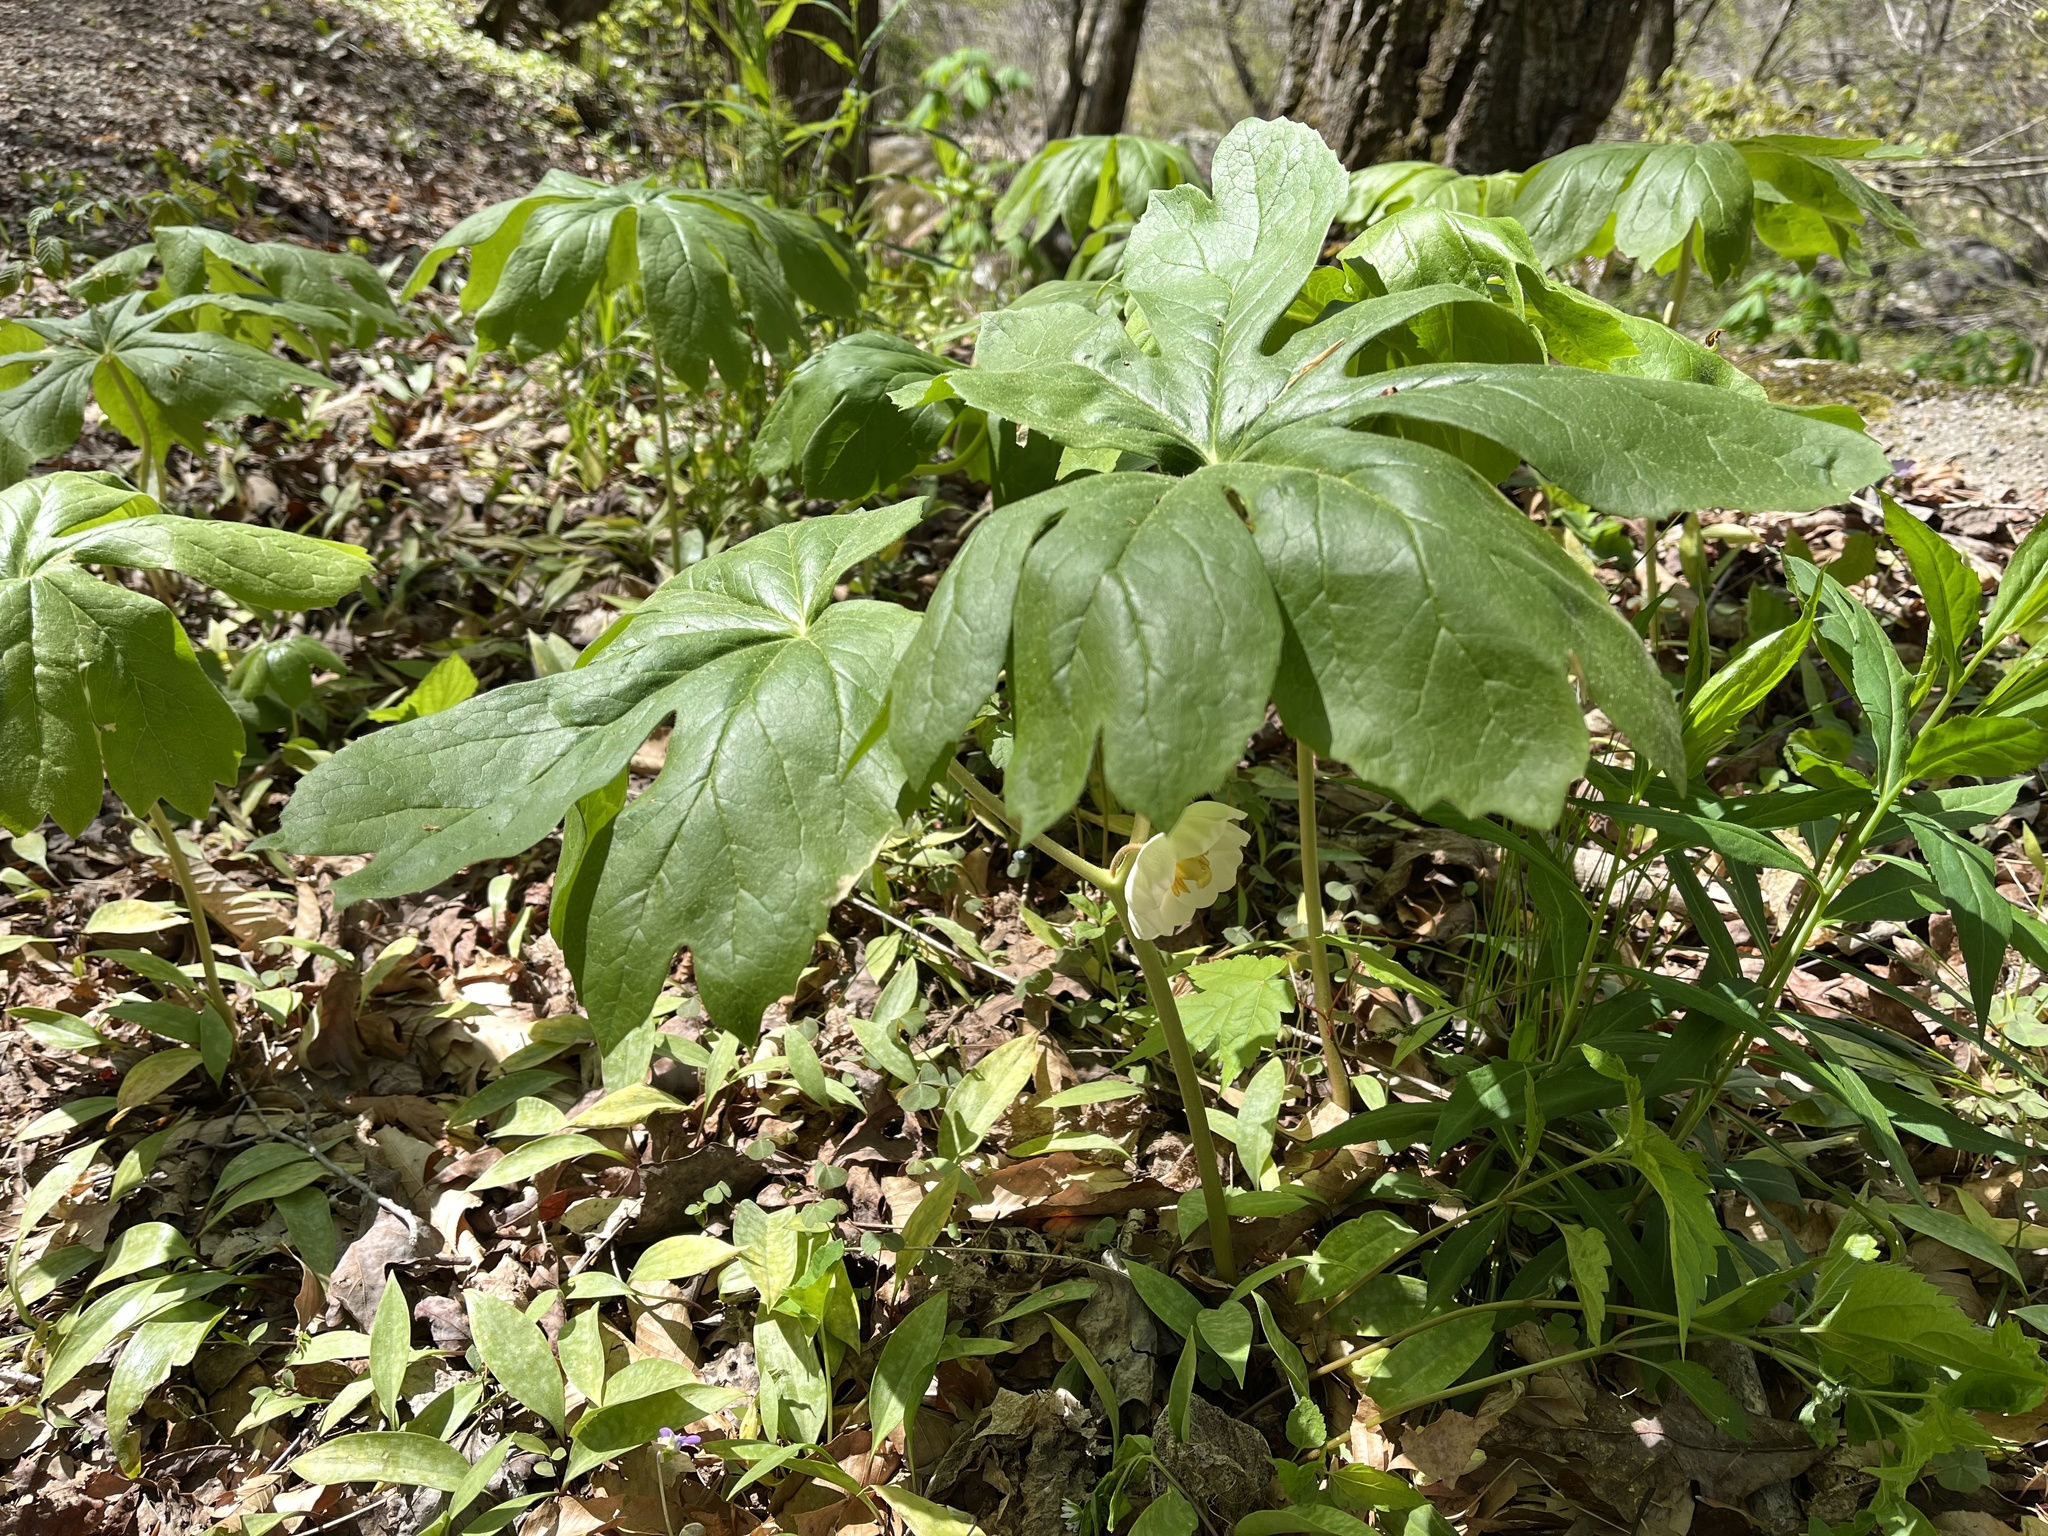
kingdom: Plantae
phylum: Tracheophyta
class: Magnoliopsida
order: Ranunculales
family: Berberidaceae
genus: Podophyllum
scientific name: Podophyllum peltatum
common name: Wild mandrake
